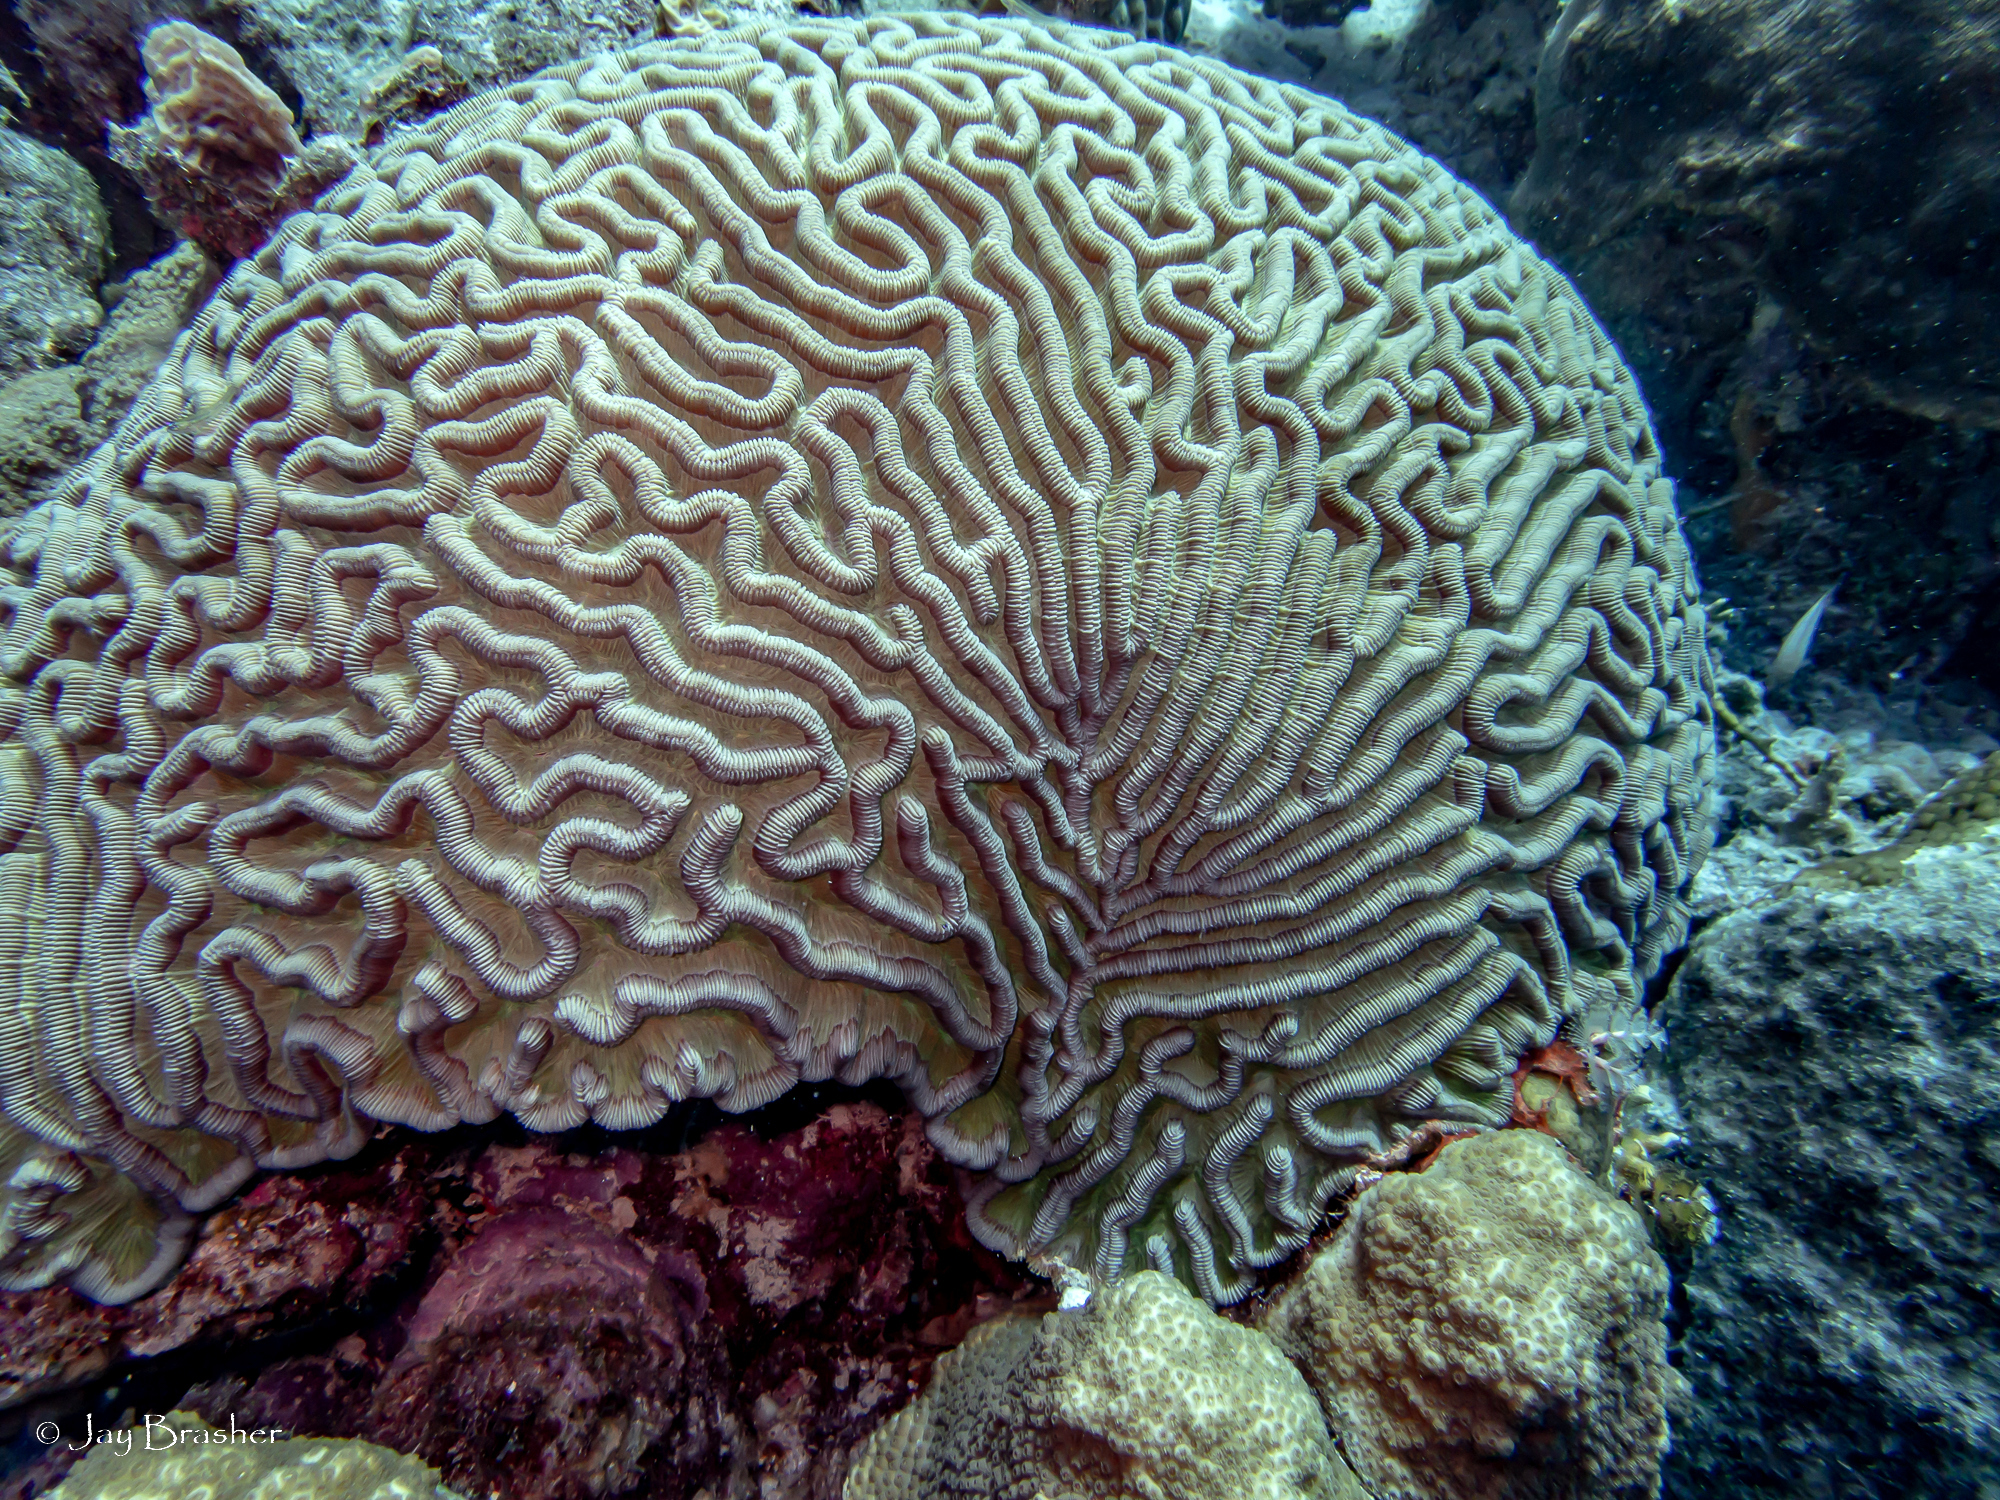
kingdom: Animalia
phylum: Cnidaria
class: Anthozoa
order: Scleractinia
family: Faviidae
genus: Colpophyllia
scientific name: Colpophyllia natans
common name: Boulder brain coral
